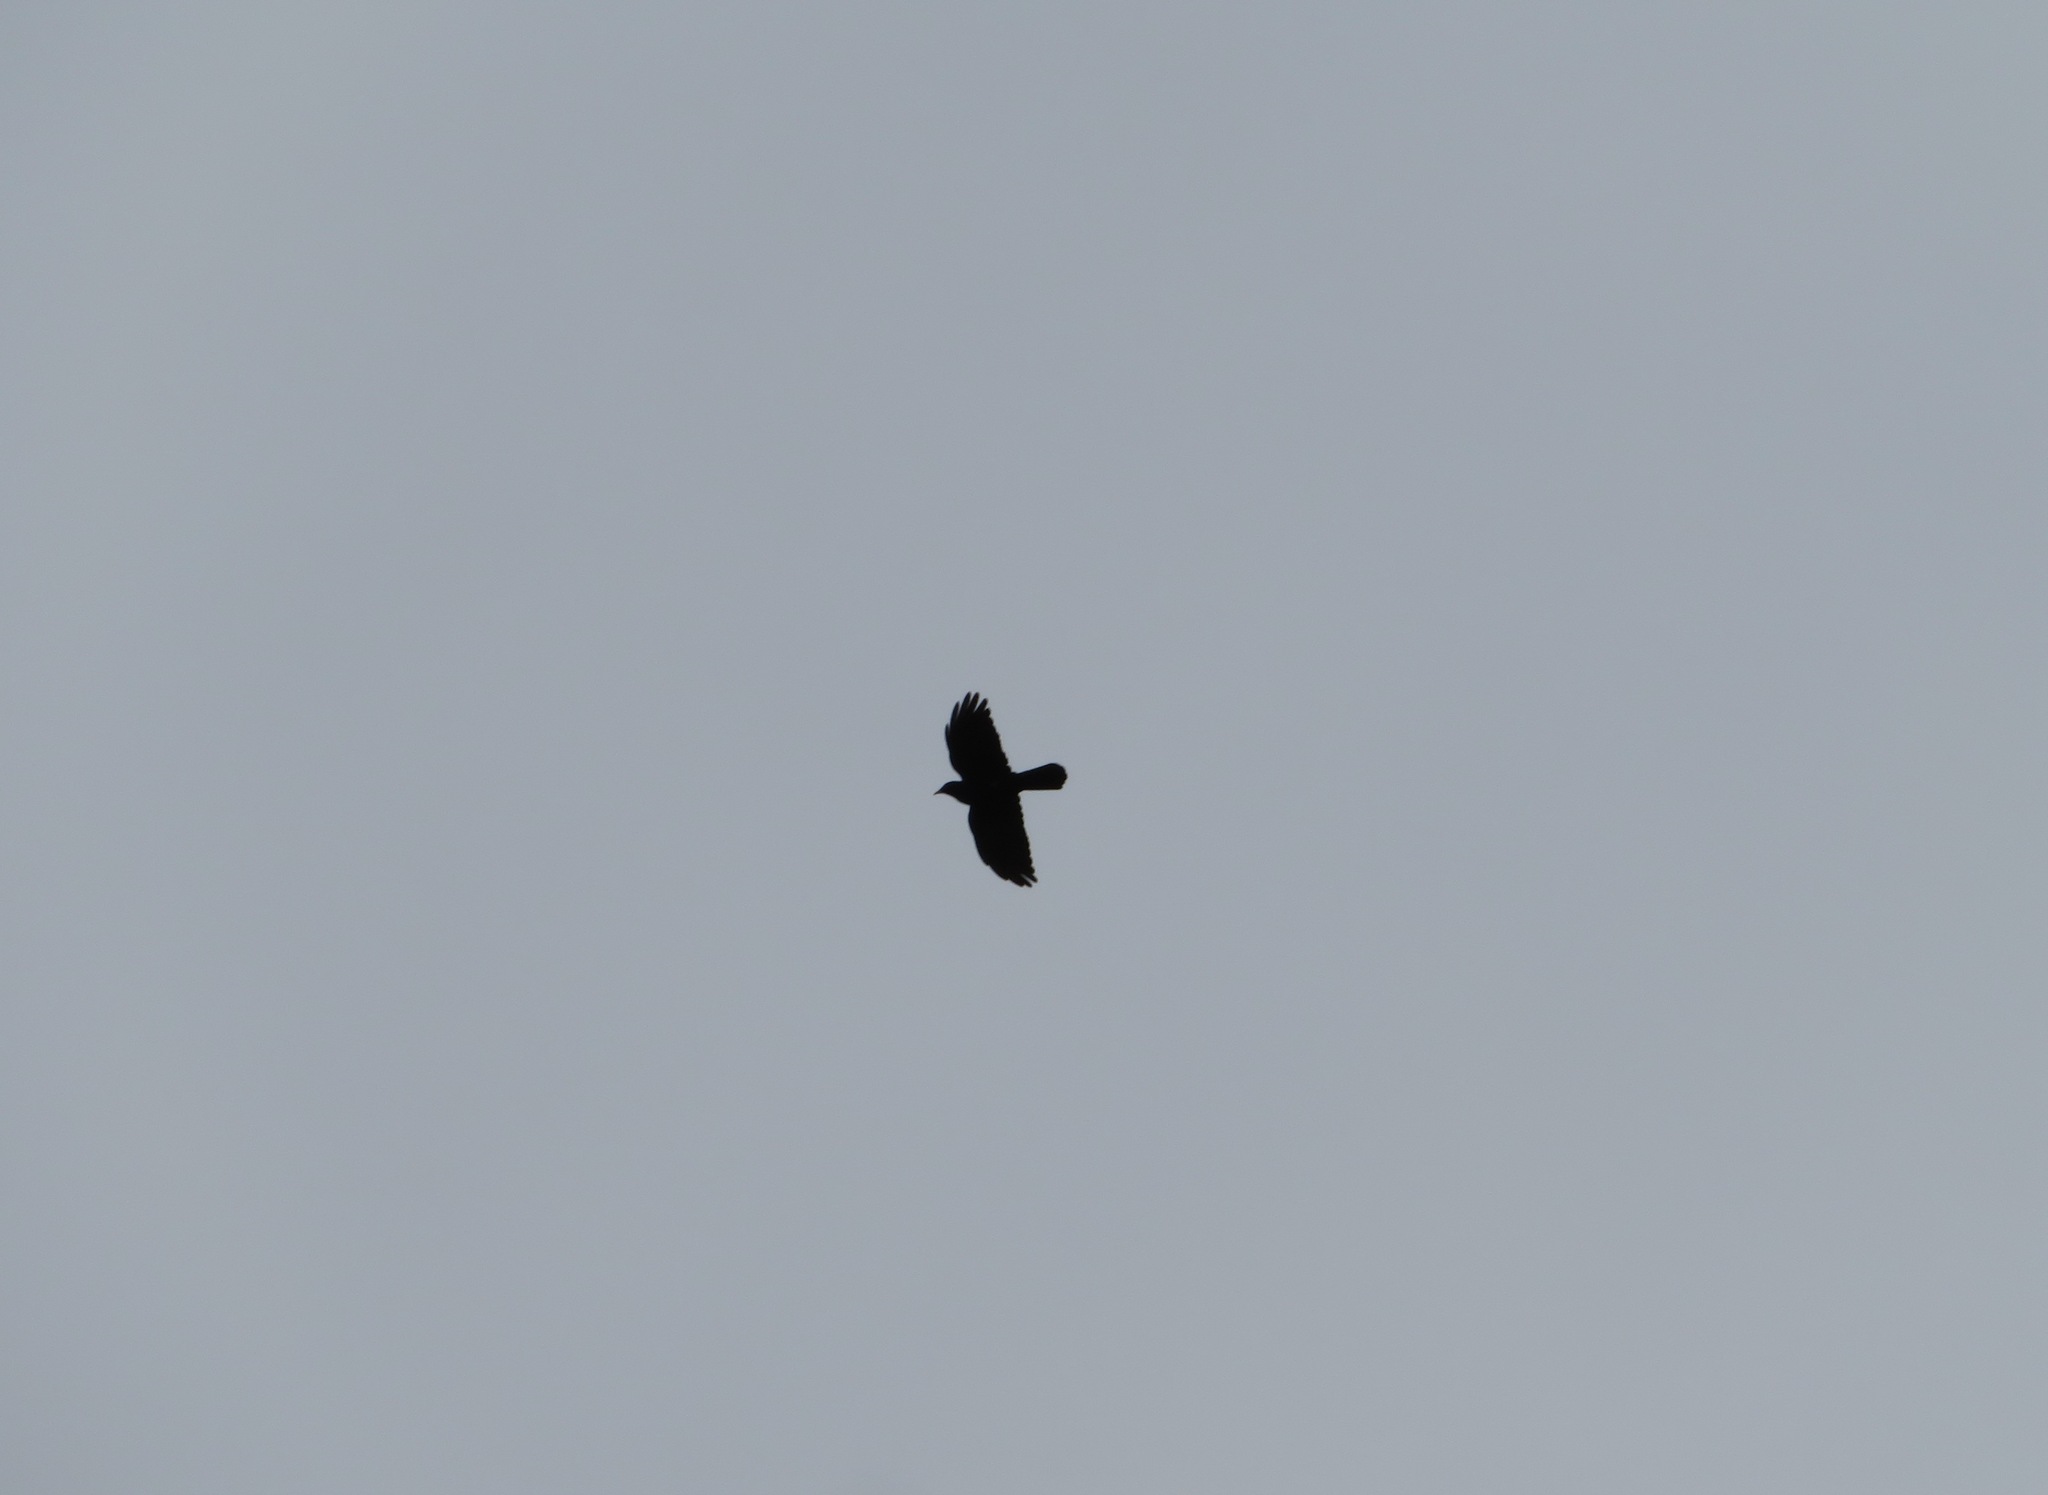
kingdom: Animalia
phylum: Chordata
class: Aves
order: Passeriformes
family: Corvidae
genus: Pyrrhocorax
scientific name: Pyrrhocorax graculus
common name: Alpine chough
